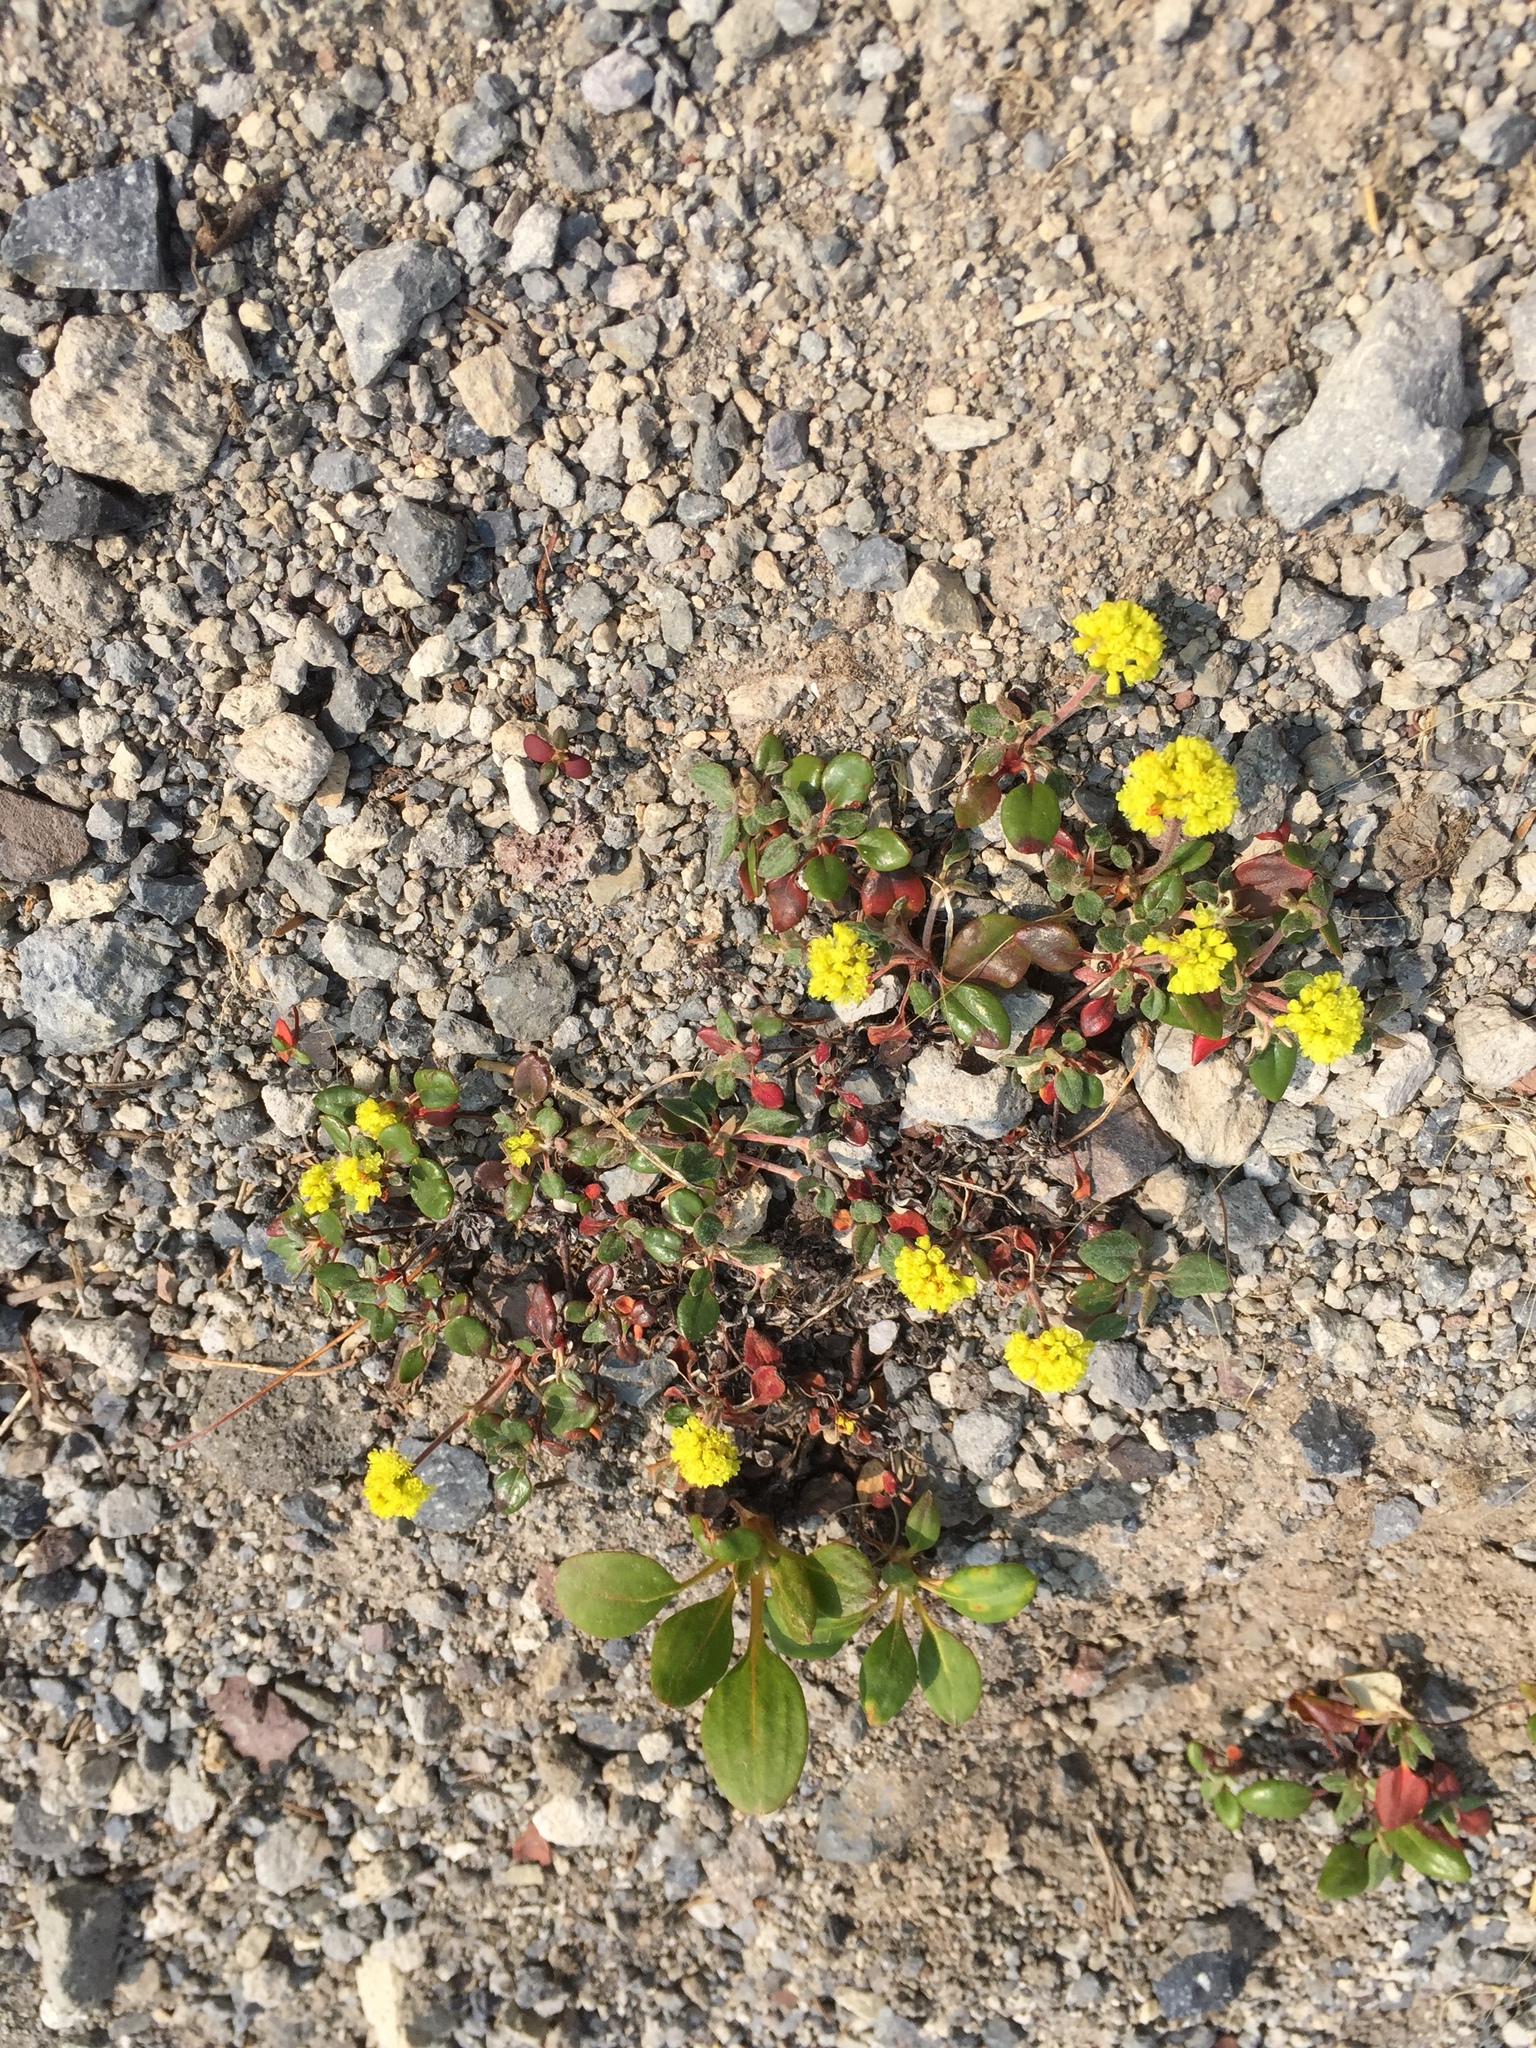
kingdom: Plantae
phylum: Tracheophyta
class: Magnoliopsida
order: Caryophyllales
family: Polygonaceae
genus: Eriogonum
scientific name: Eriogonum marifolium
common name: Marum-leaf wild buckwheat
